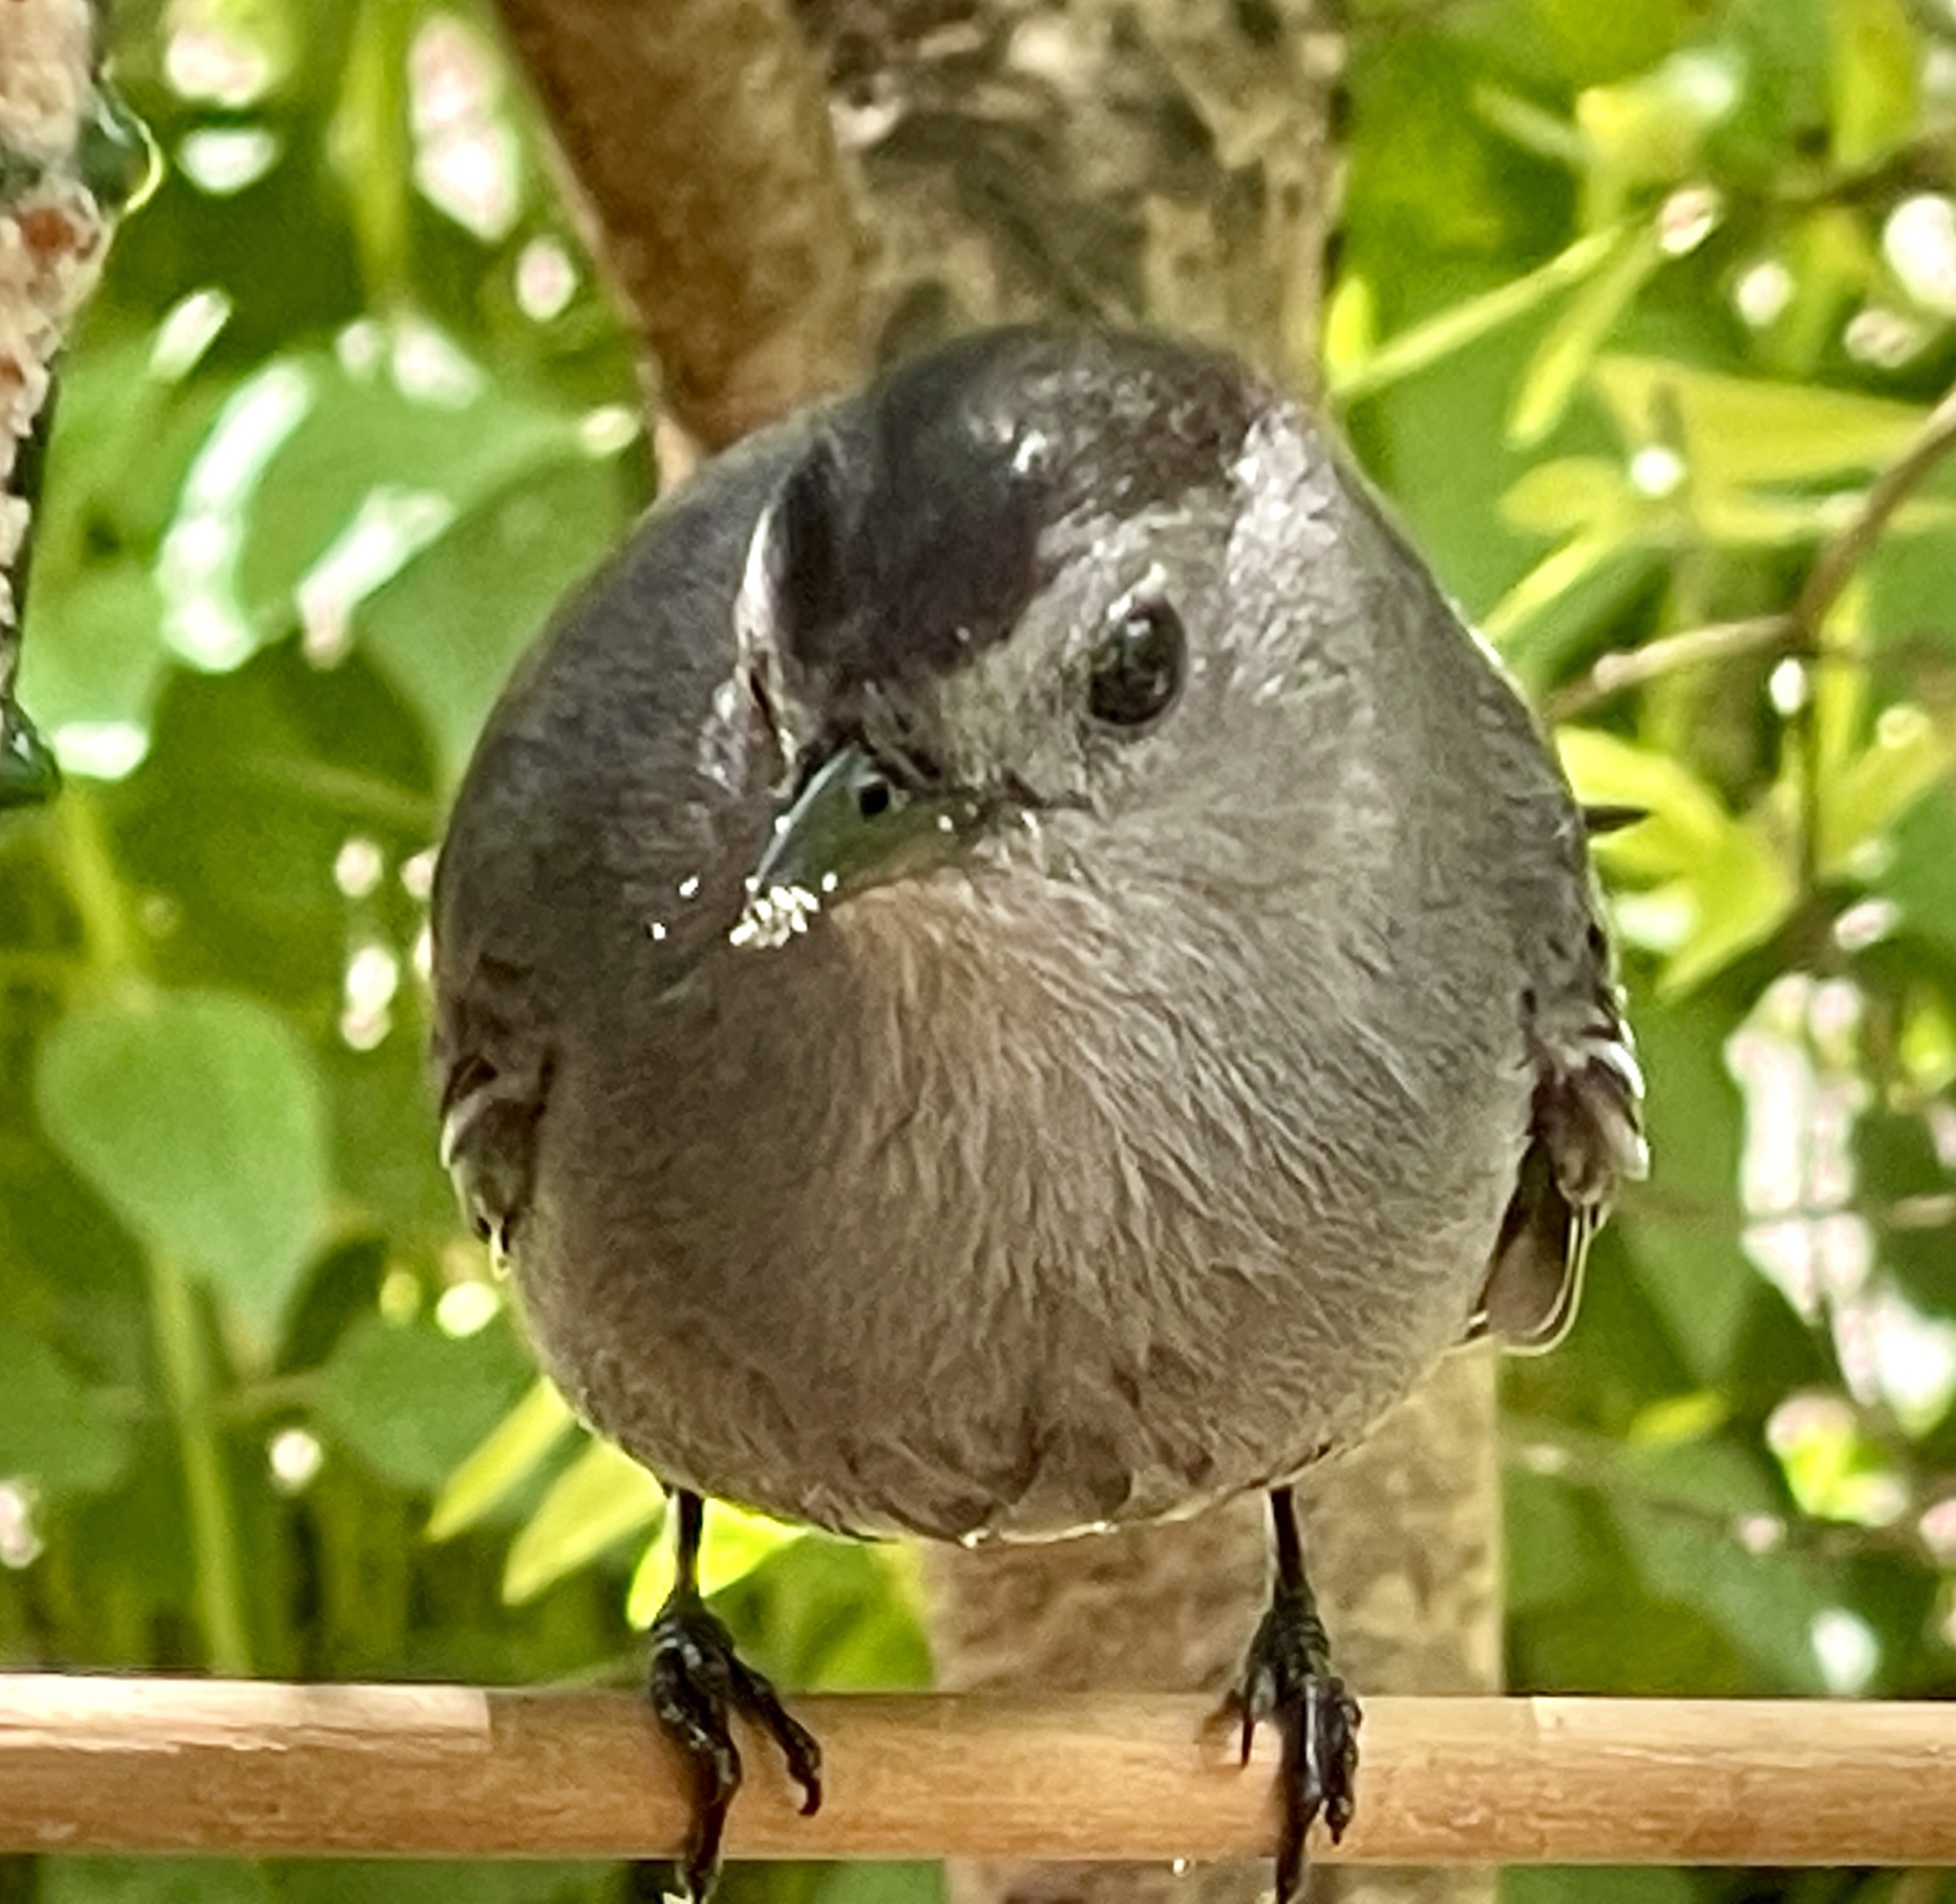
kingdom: Animalia
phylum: Chordata
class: Aves
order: Passeriformes
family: Mimidae
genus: Dumetella
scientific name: Dumetella carolinensis
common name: Gray catbird
